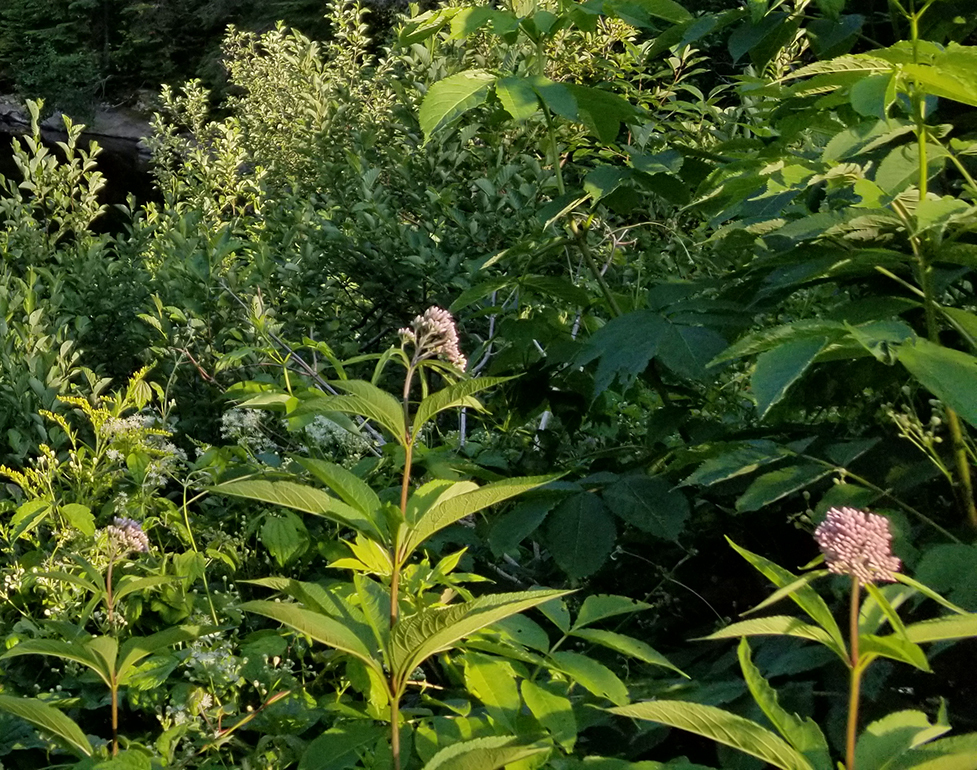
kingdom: Plantae
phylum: Tracheophyta
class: Magnoliopsida
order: Asterales
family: Asteraceae
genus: Eutrochium
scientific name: Eutrochium maculatum
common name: Spotted joe pye weed
